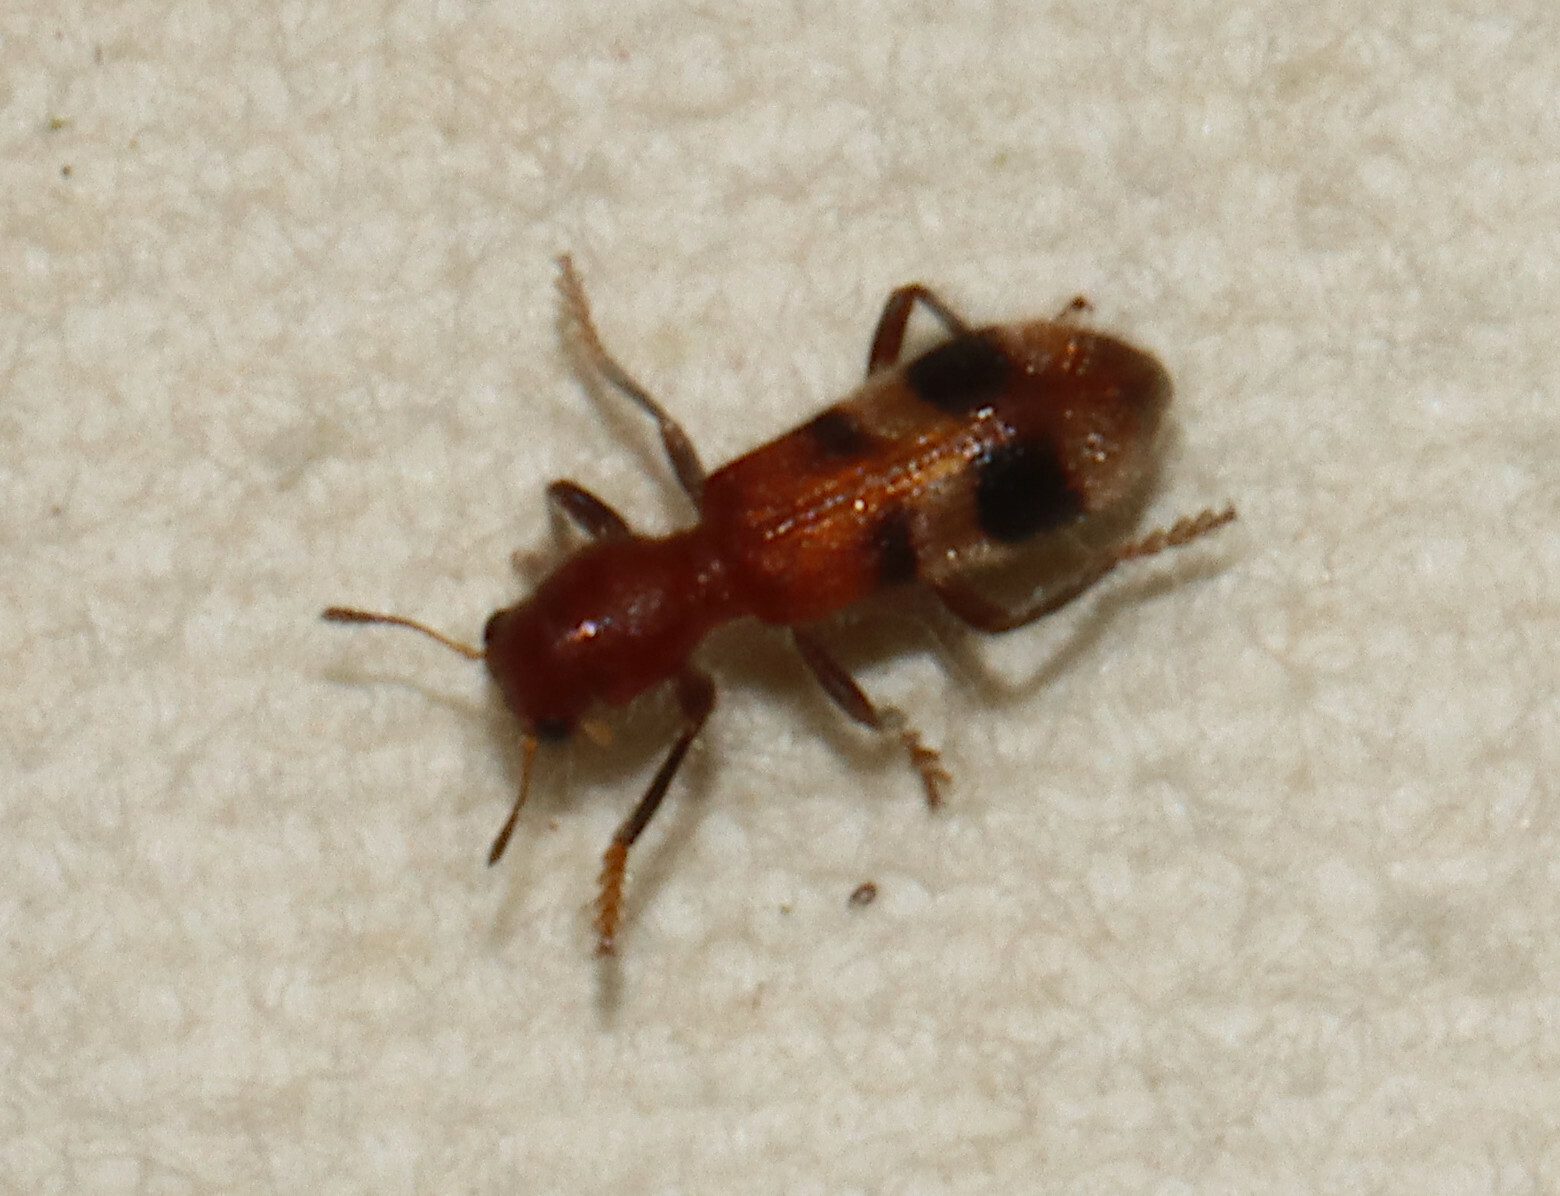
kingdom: Animalia
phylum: Arthropoda
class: Insecta
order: Coleoptera
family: Cleridae
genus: Enoclerus
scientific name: Enoclerus rosmarus
